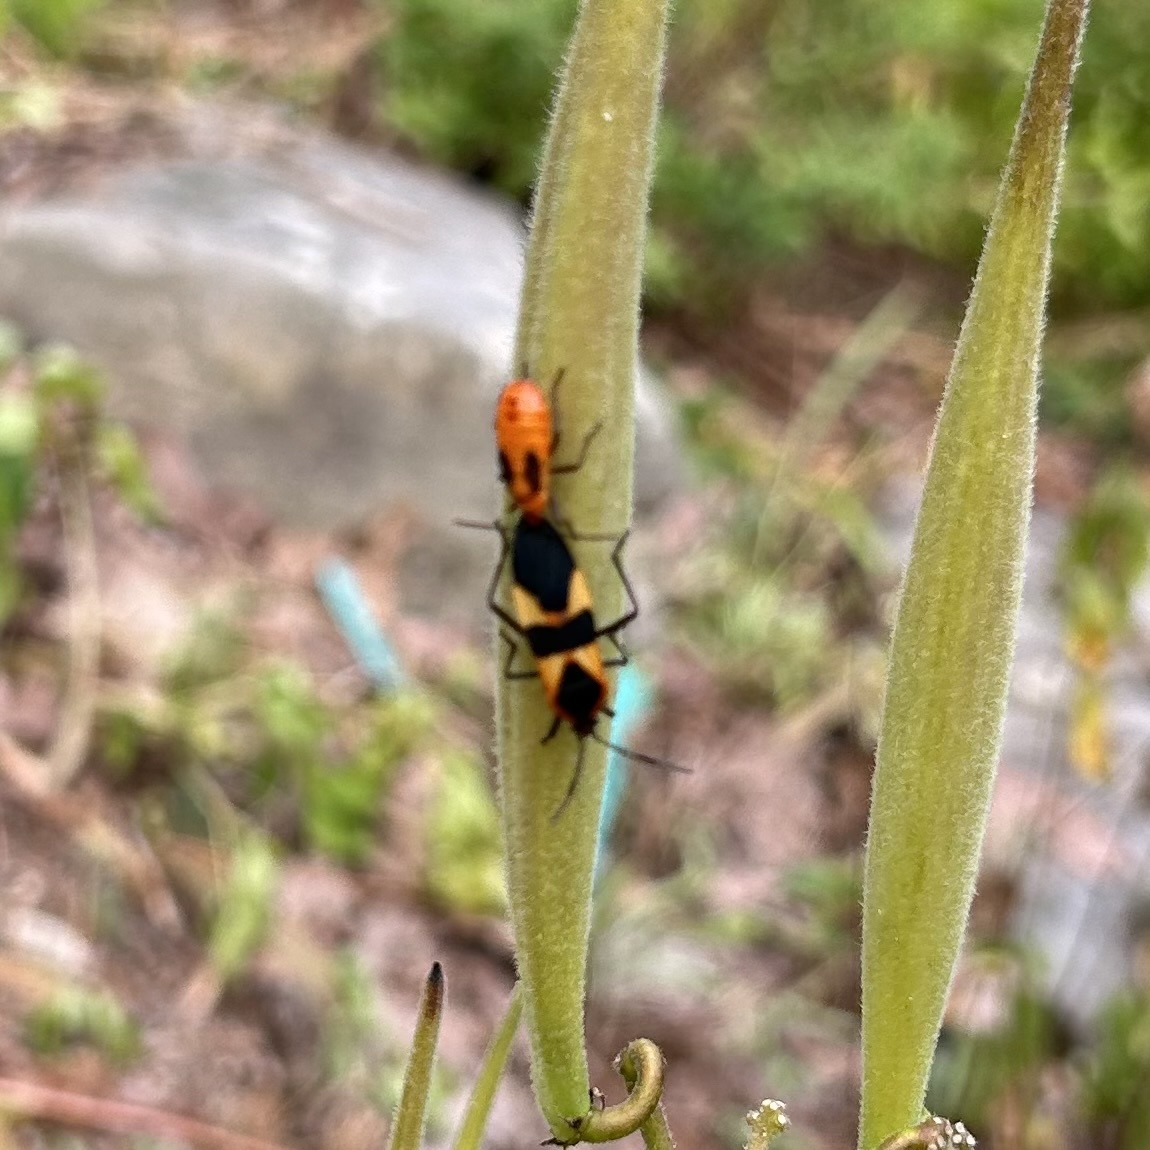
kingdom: Animalia
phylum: Arthropoda
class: Insecta
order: Hemiptera
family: Lygaeidae
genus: Oncopeltus
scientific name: Oncopeltus fasciatus
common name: Large milkweed bug
